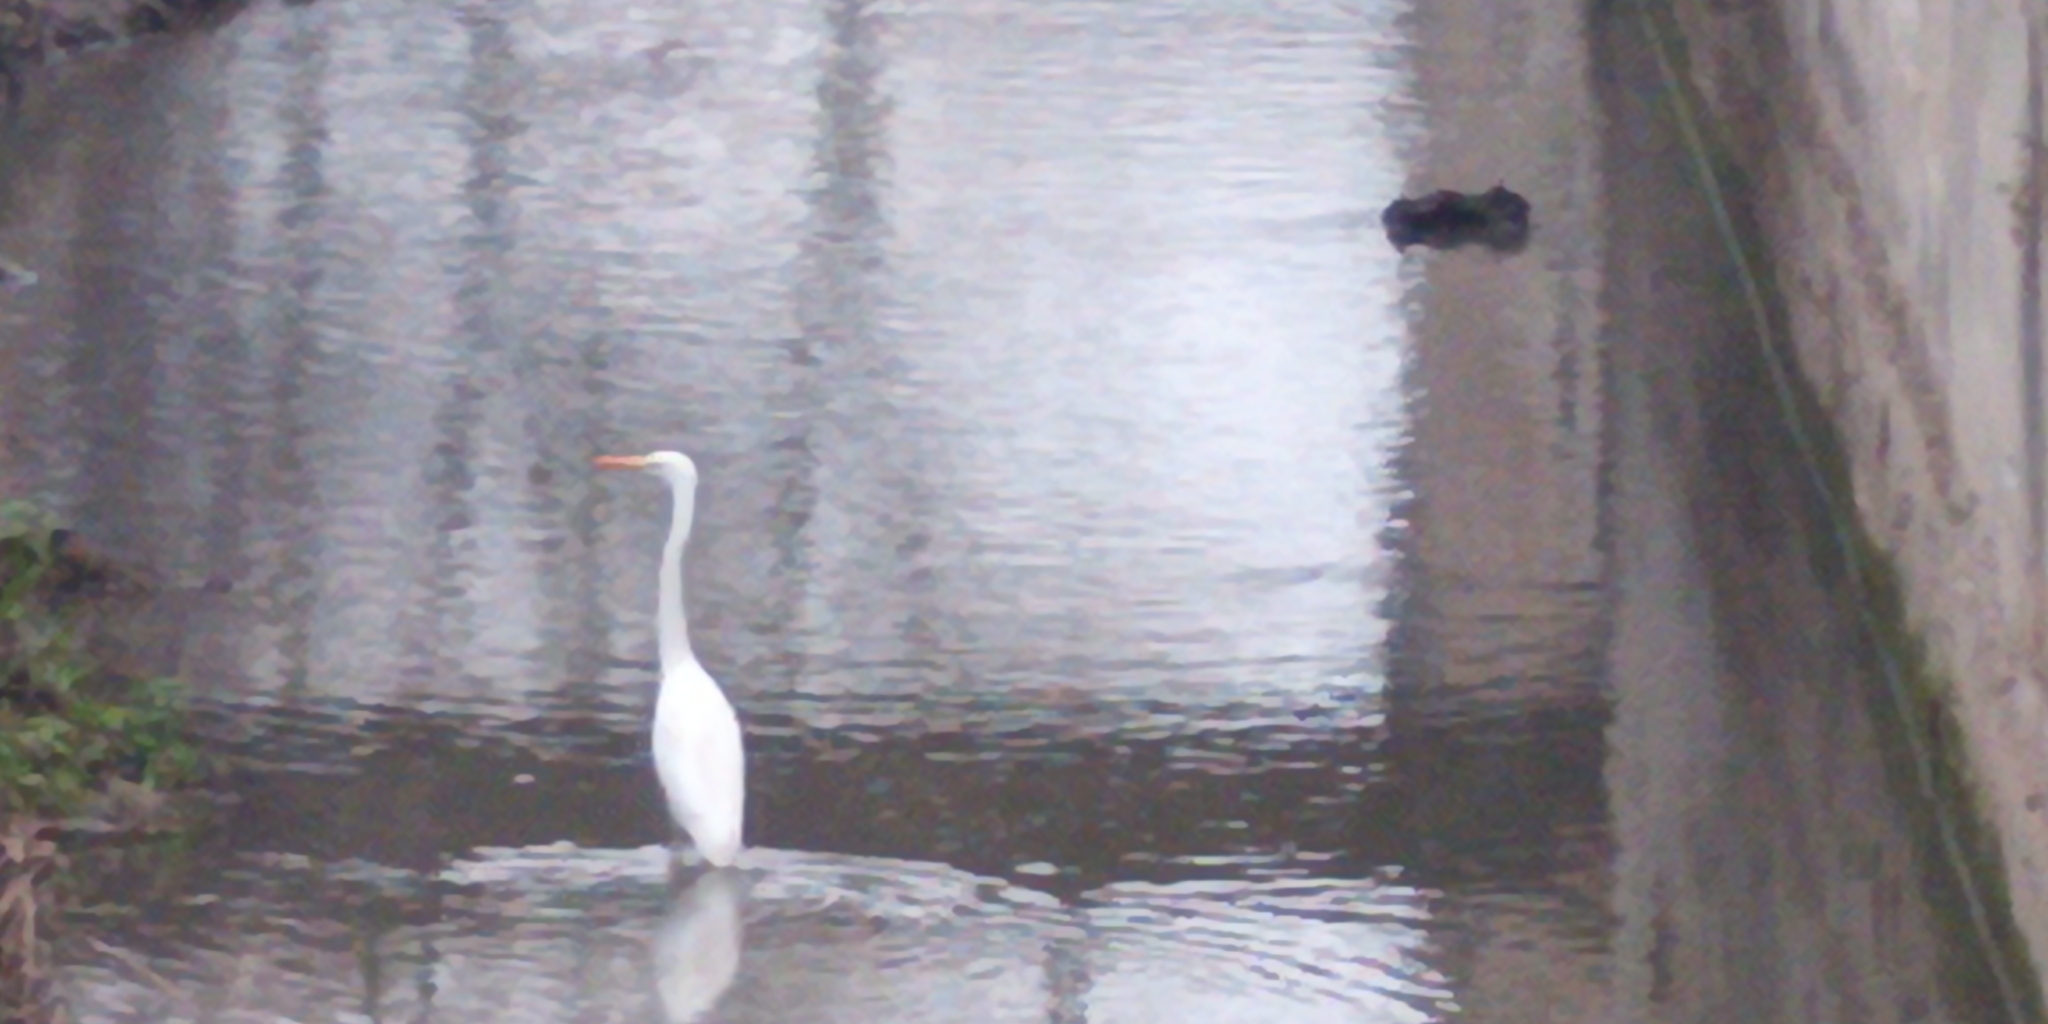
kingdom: Animalia
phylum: Chordata
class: Aves
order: Pelecaniformes
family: Ardeidae
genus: Ardea
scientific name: Ardea alba
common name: Great egret
